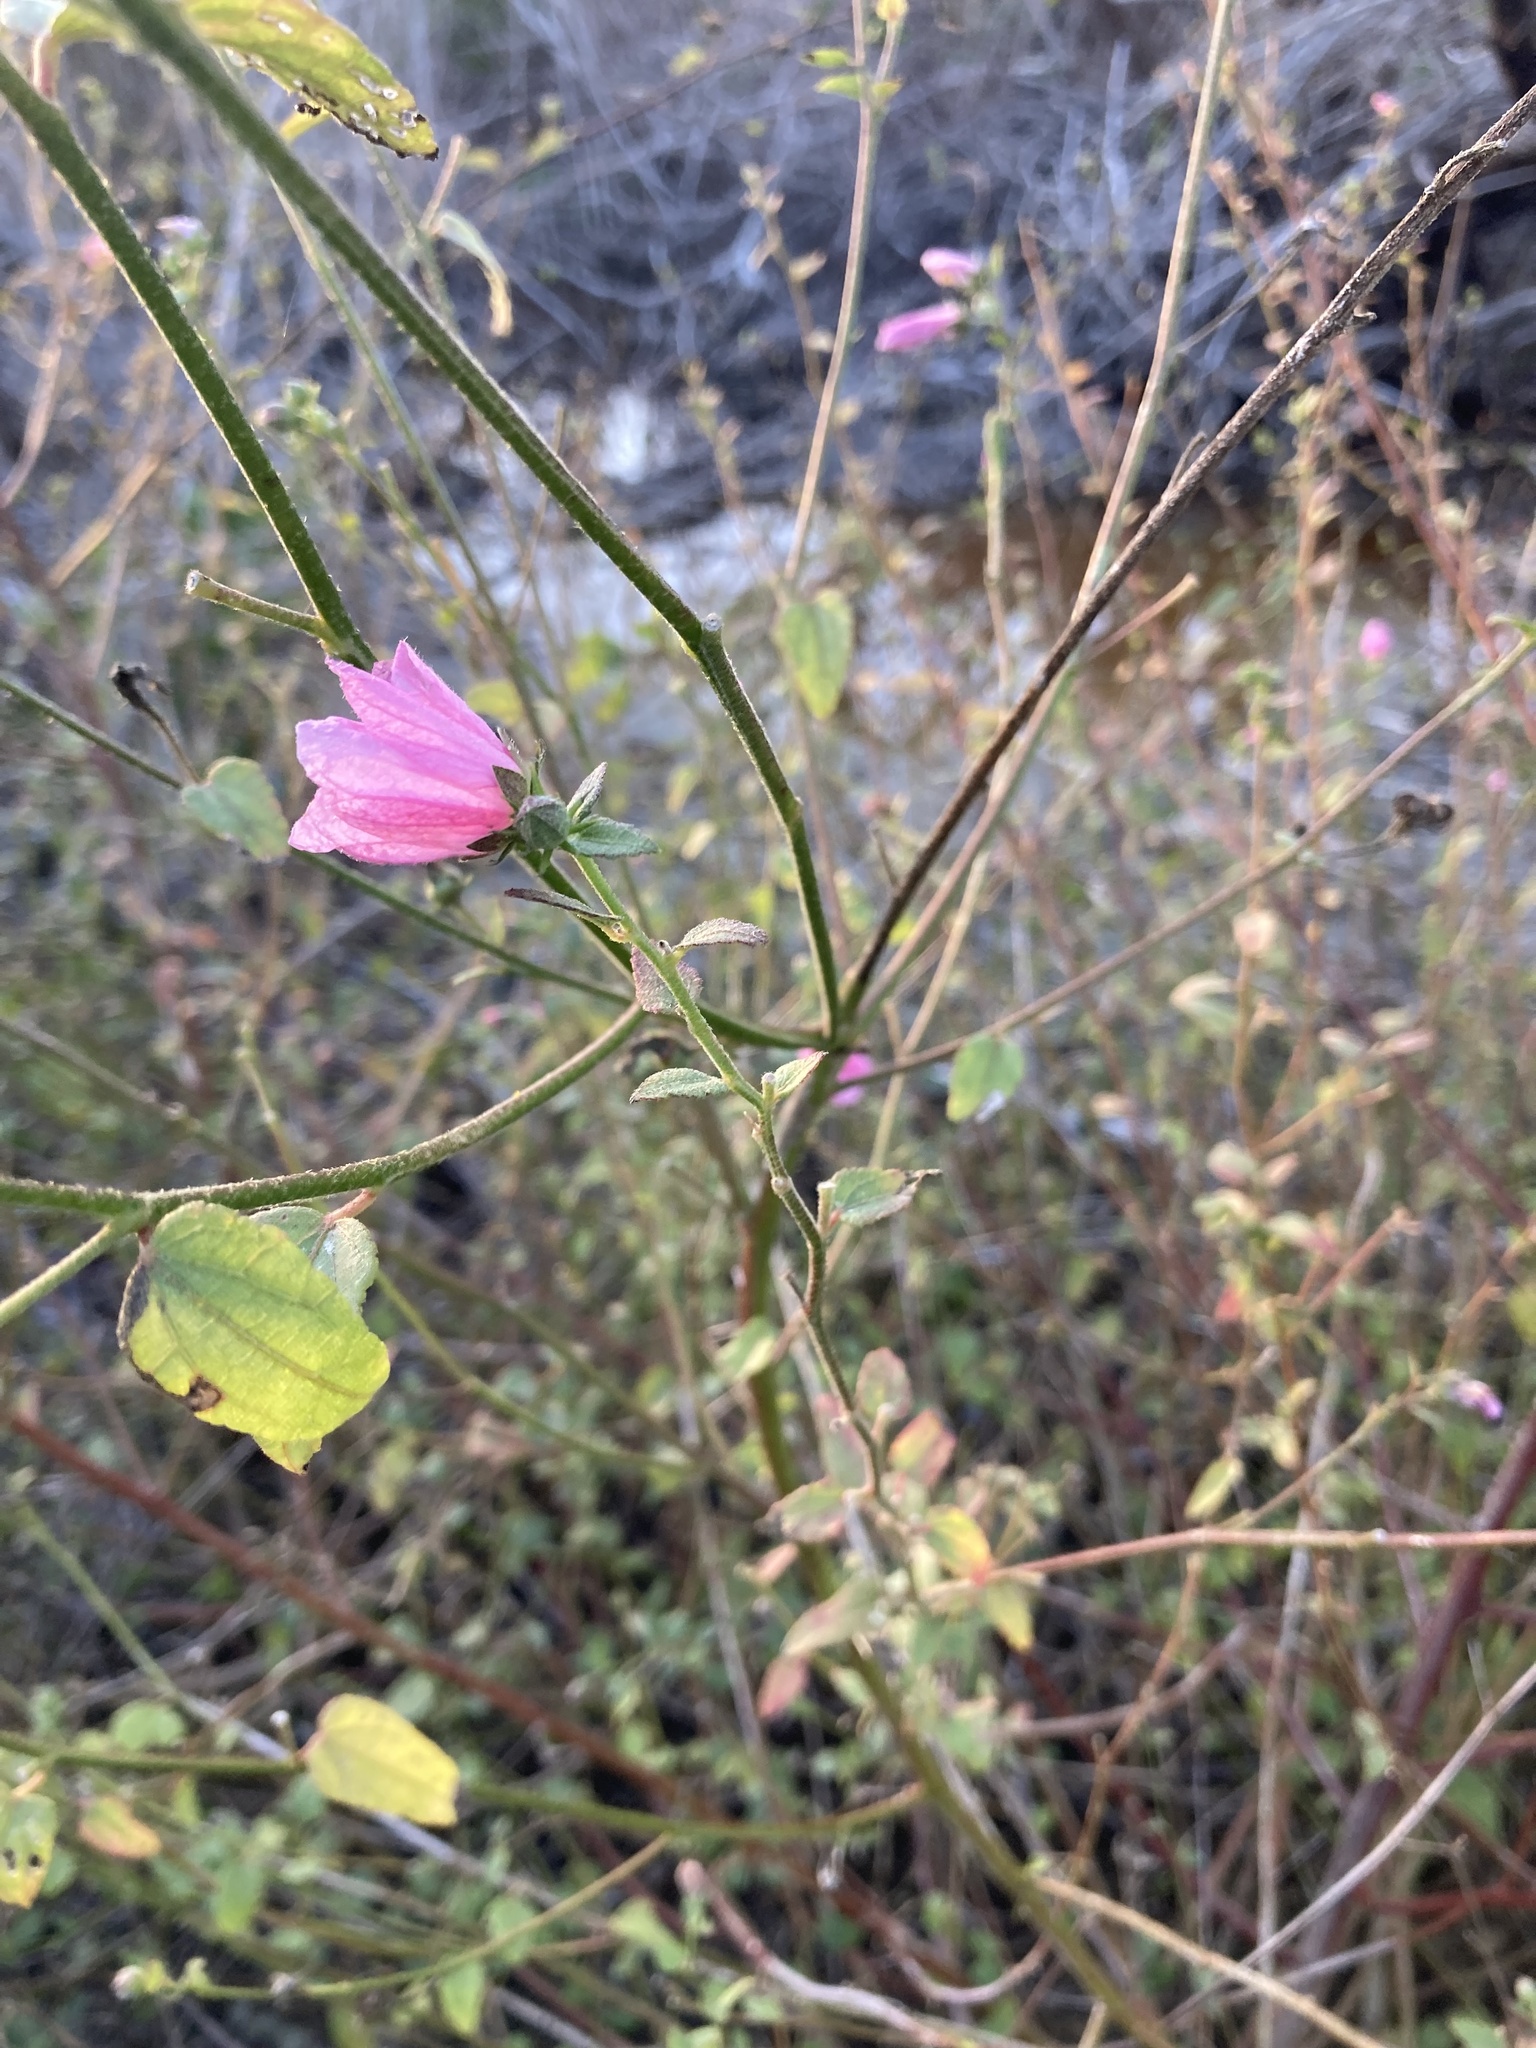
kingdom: Plantae
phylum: Tracheophyta
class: Magnoliopsida
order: Malvales
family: Malvaceae
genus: Kosteletzkya
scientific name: Kosteletzkya pentacarpos
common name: Virginia saltmarsh mallow
